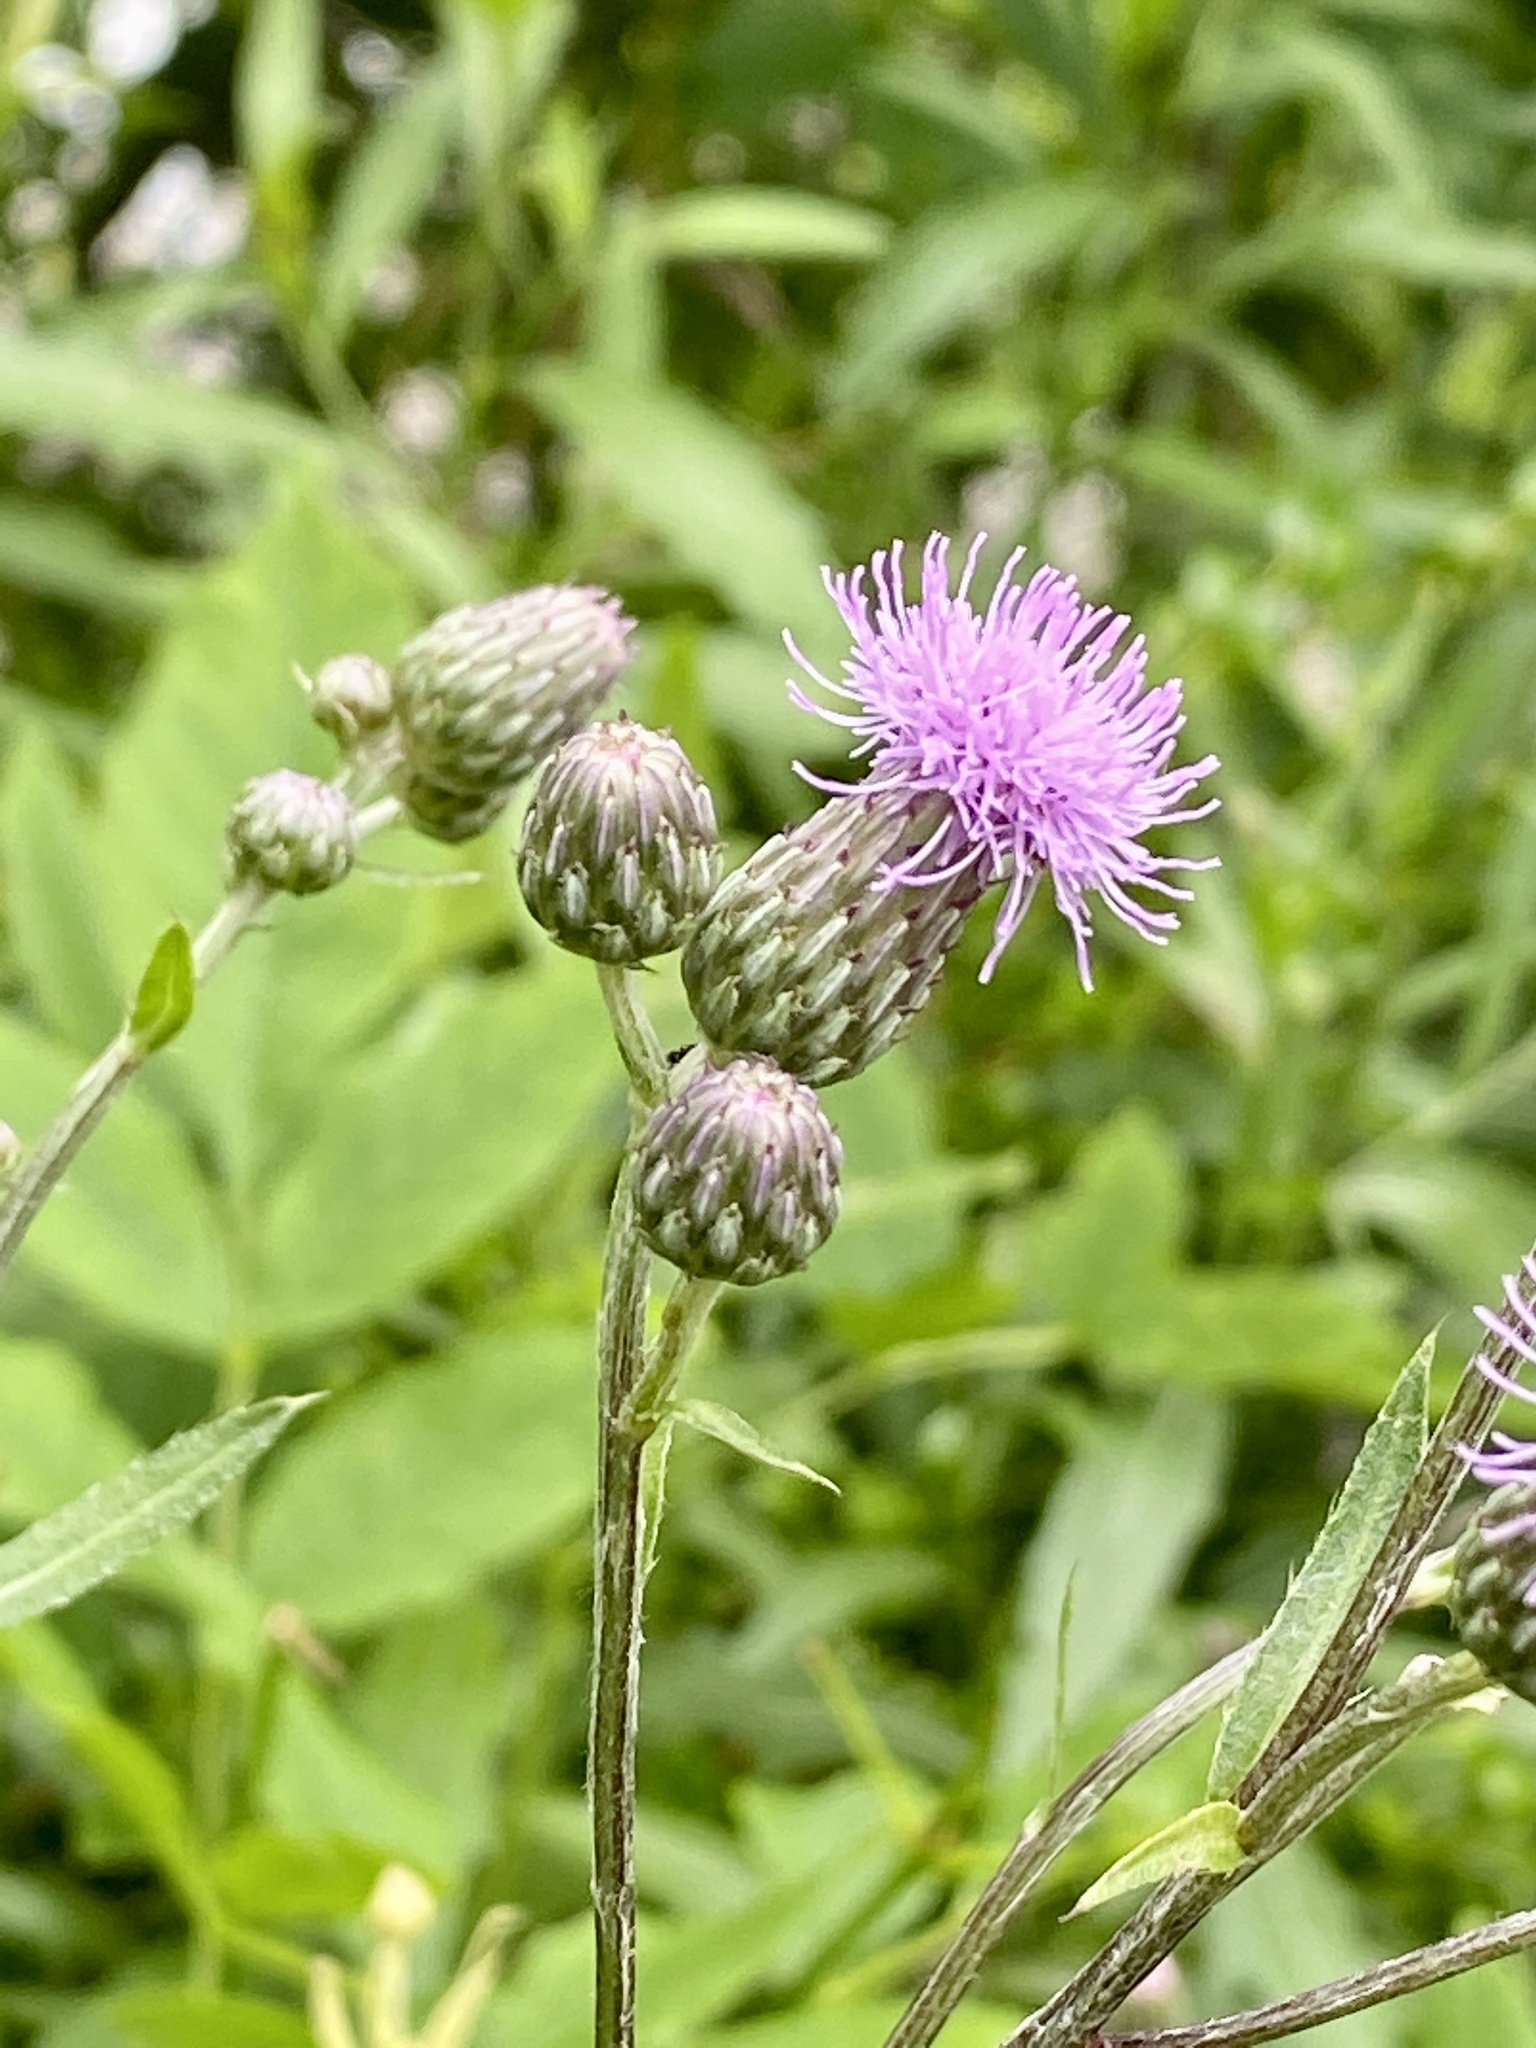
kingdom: Plantae
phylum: Tracheophyta
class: Magnoliopsida
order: Asterales
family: Asteraceae
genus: Cirsium
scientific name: Cirsium arvense
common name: Creeping thistle
